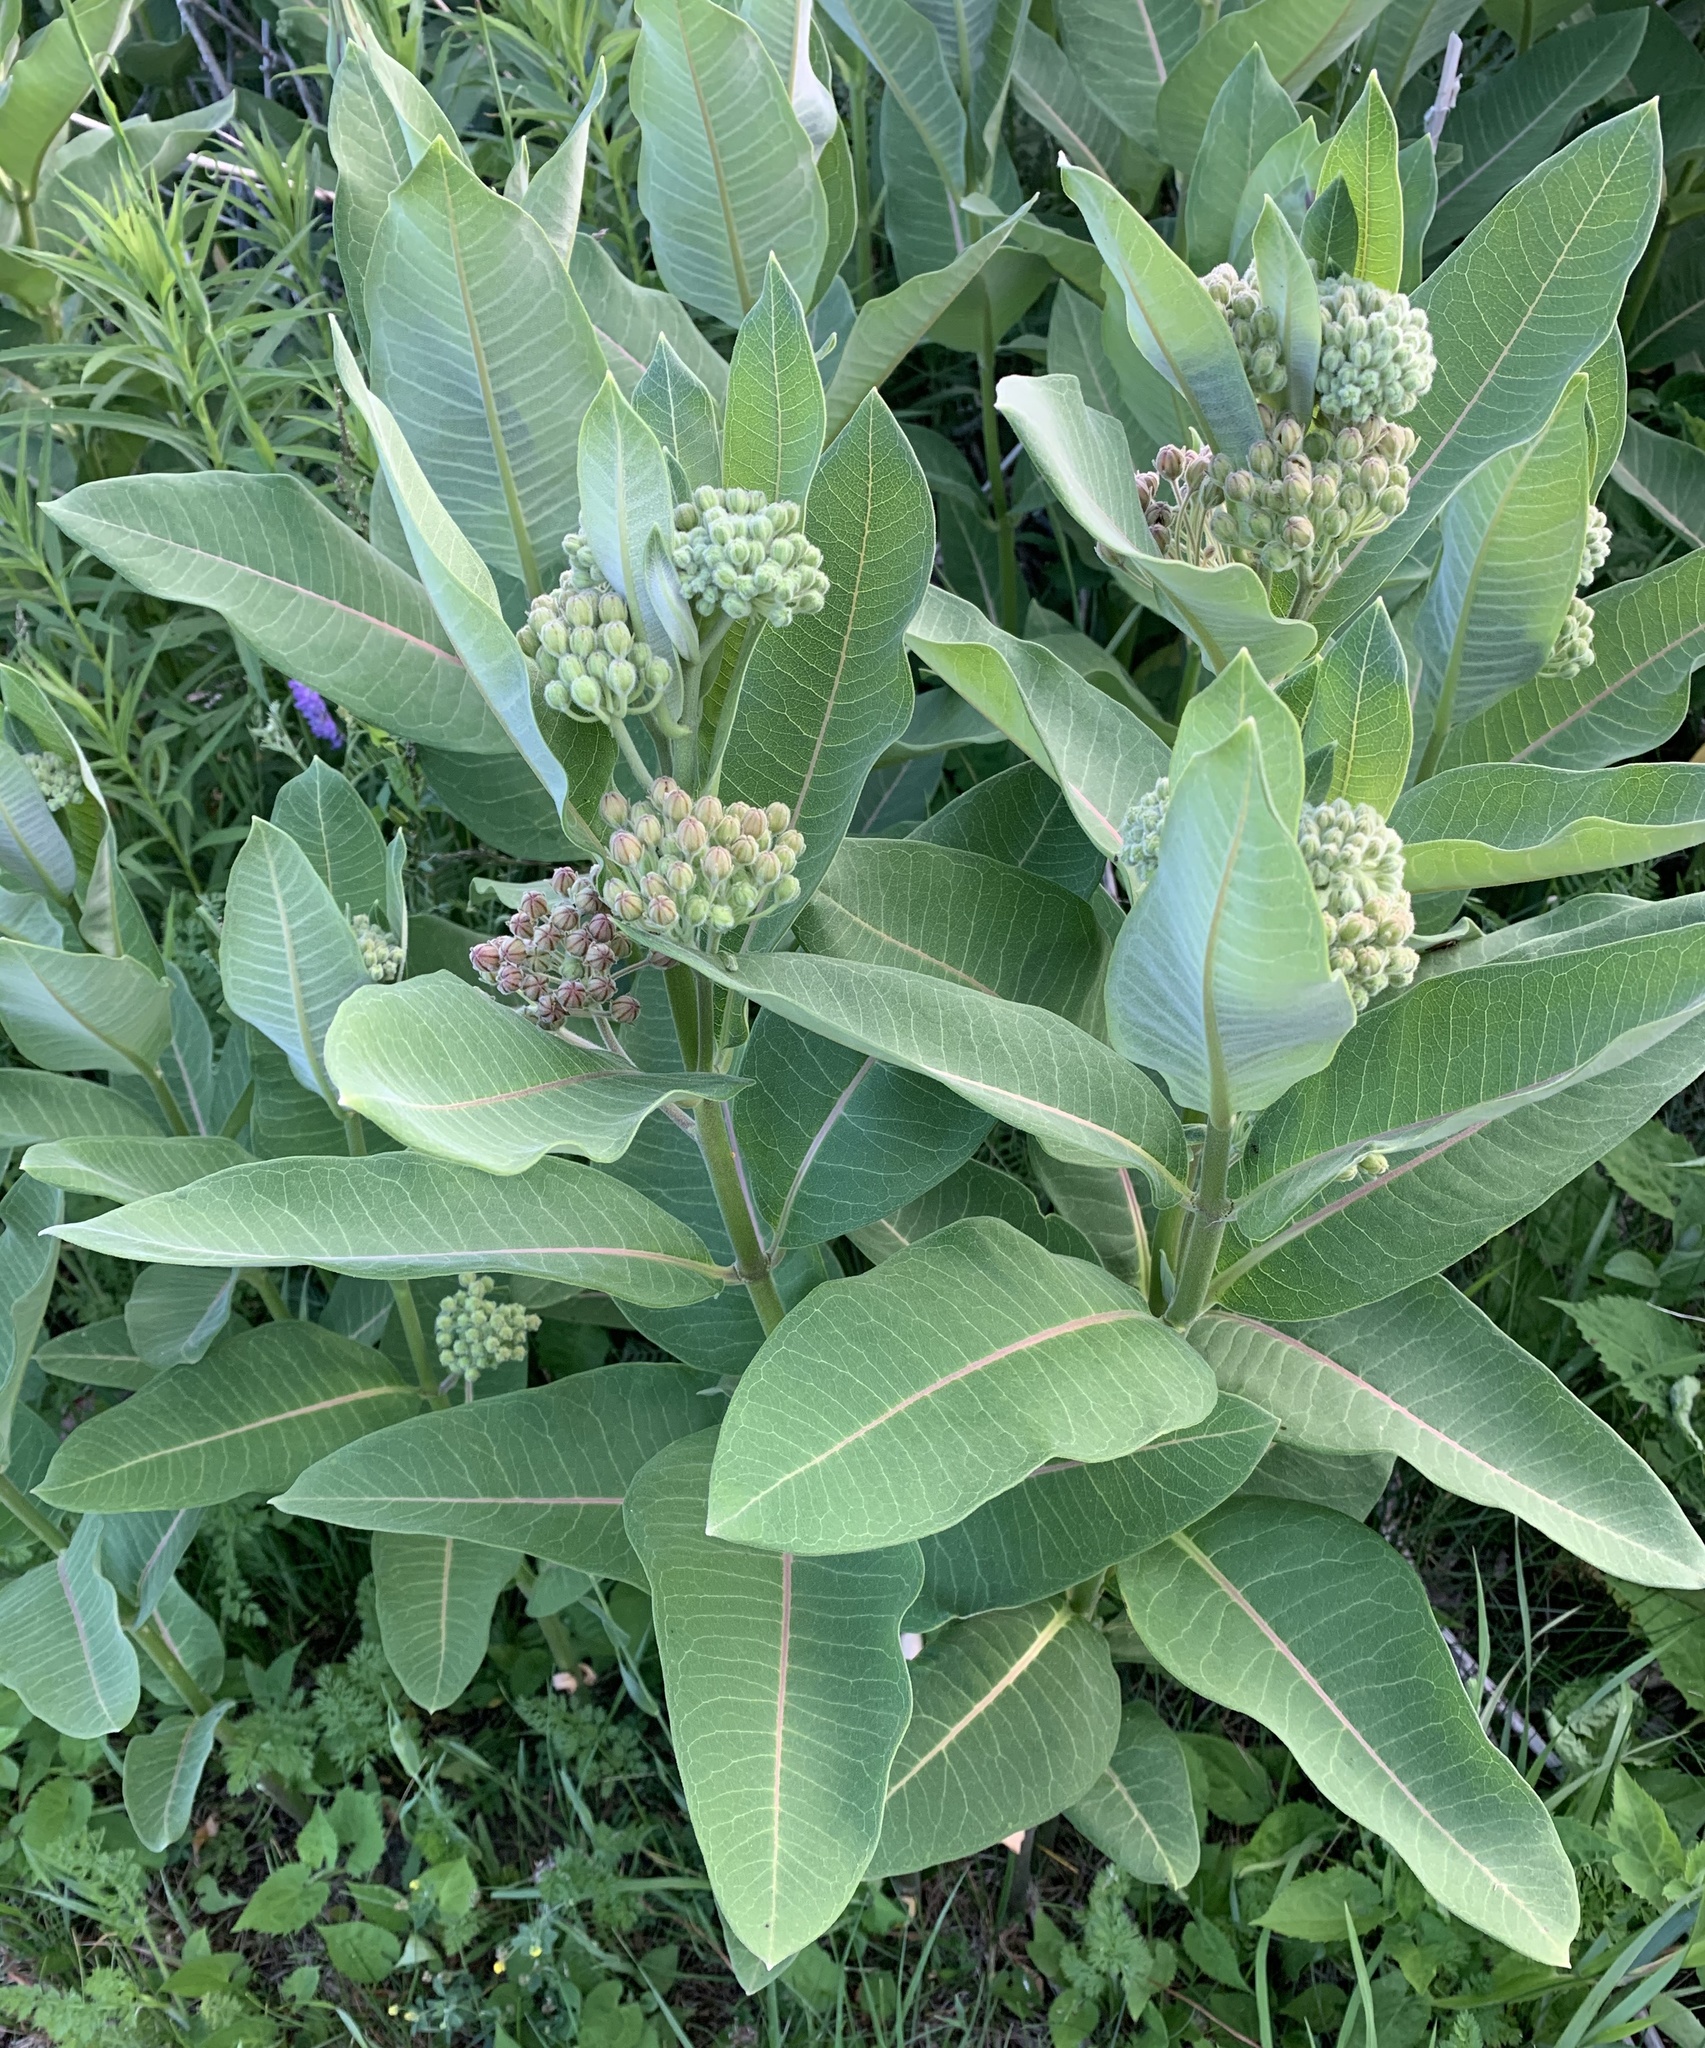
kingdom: Plantae
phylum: Tracheophyta
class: Magnoliopsida
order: Gentianales
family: Apocynaceae
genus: Asclepias
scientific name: Asclepias syriaca
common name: Common milkweed
